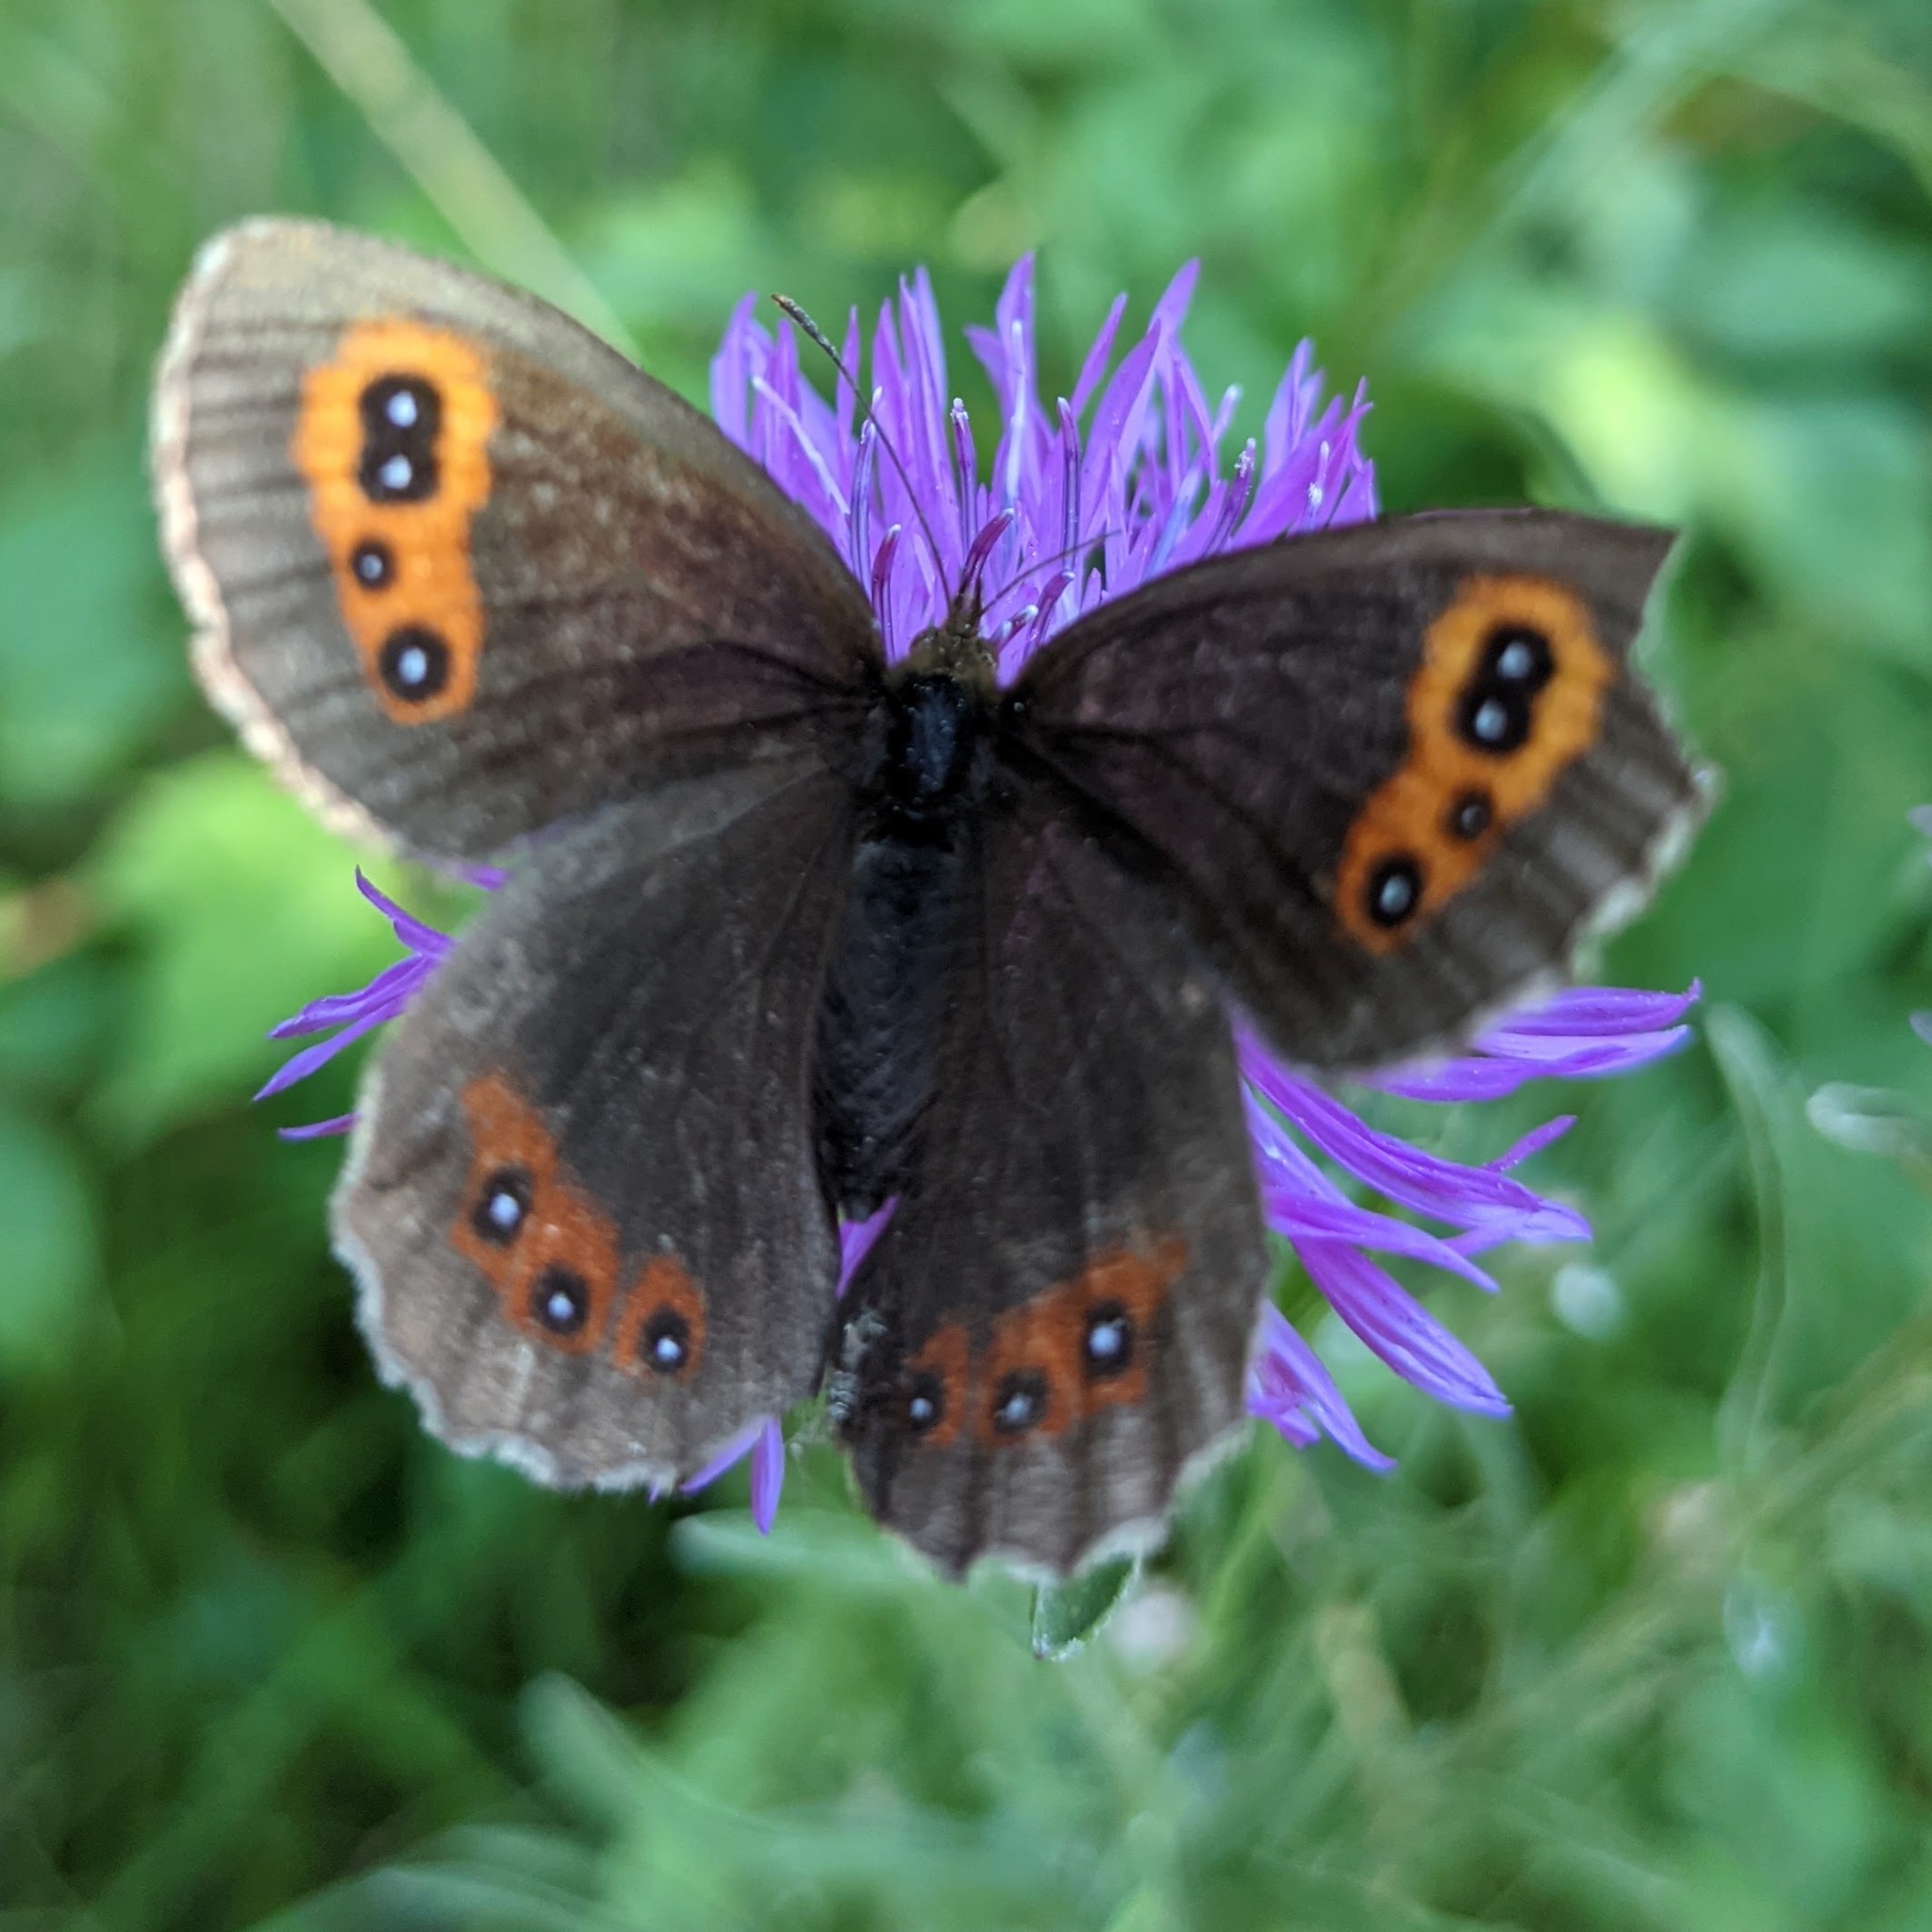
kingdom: Animalia
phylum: Arthropoda
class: Insecta
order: Lepidoptera
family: Nymphalidae
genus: Erebia
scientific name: Erebia aethiops
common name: Scotch argus
